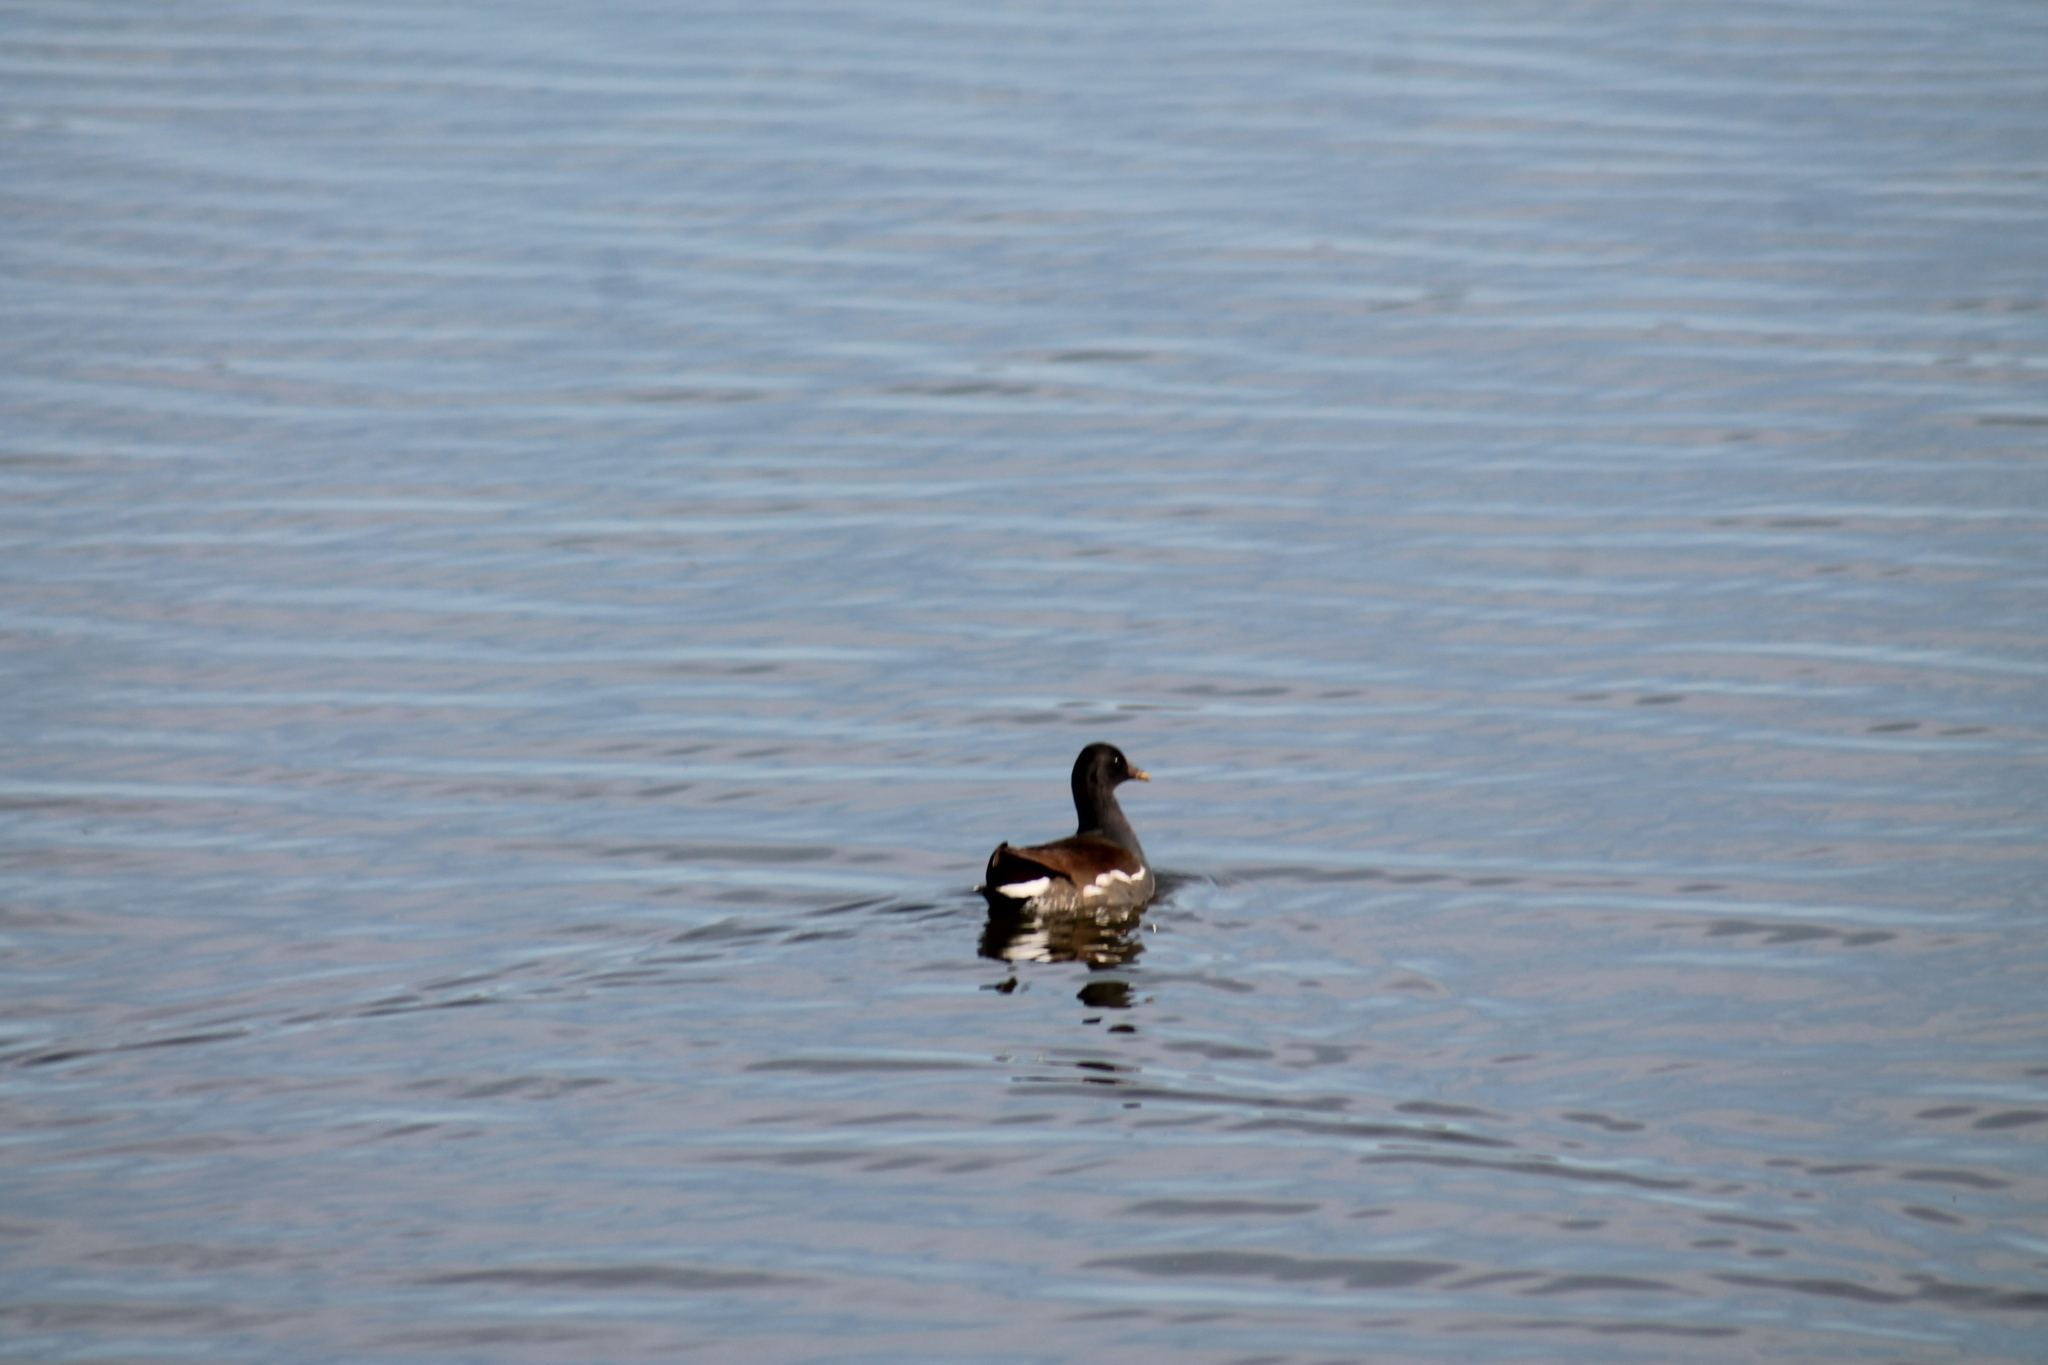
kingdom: Animalia
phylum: Chordata
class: Aves
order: Gruiformes
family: Rallidae
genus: Gallinula
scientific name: Gallinula chloropus
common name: Common moorhen
